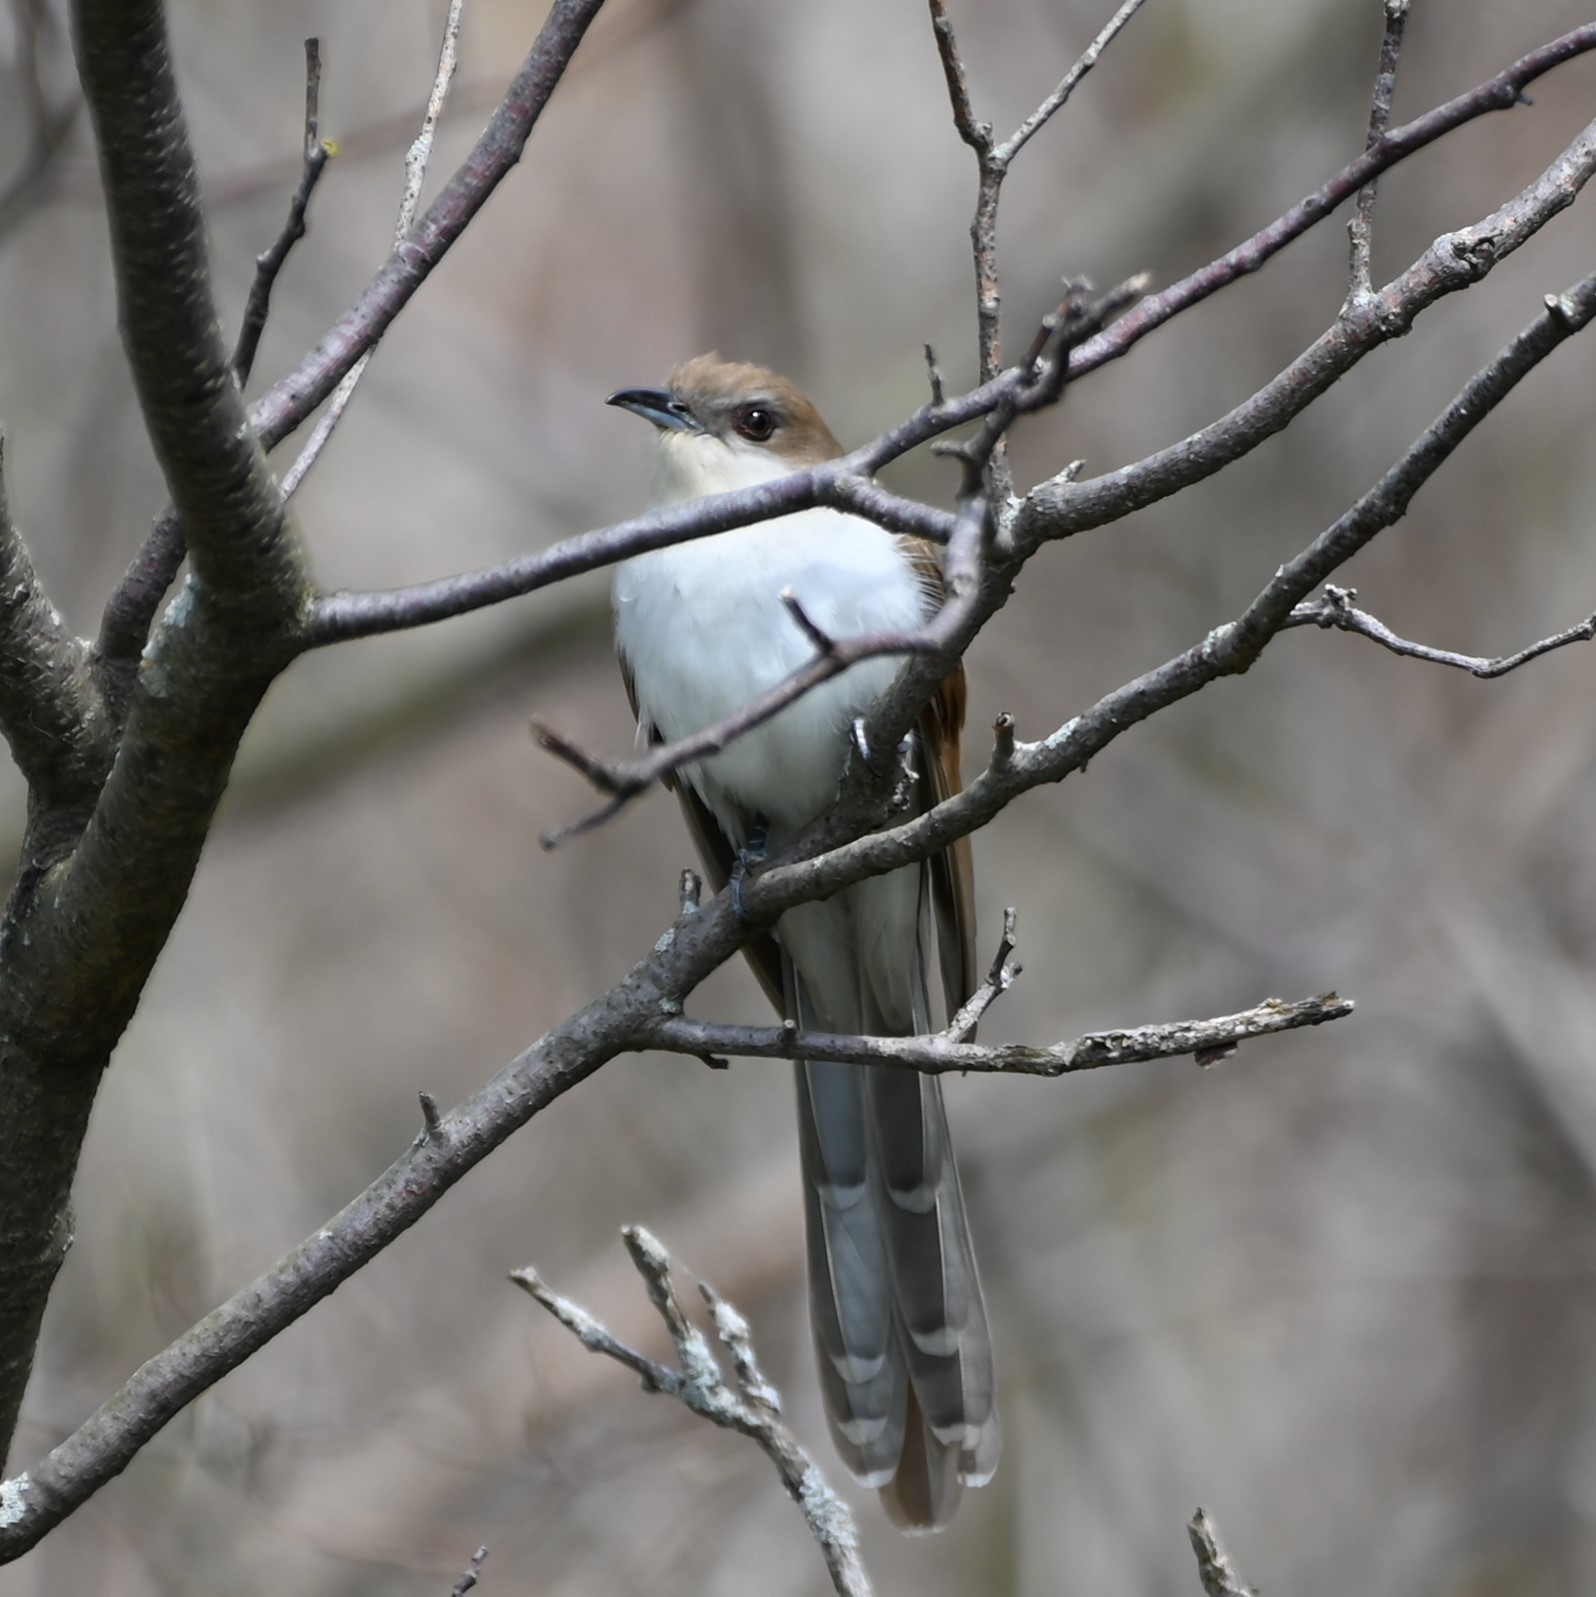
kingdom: Animalia
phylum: Chordata
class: Aves
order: Cuculiformes
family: Cuculidae
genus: Coccyzus
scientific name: Coccyzus erythropthalmus
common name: Black-billed cuckoo
